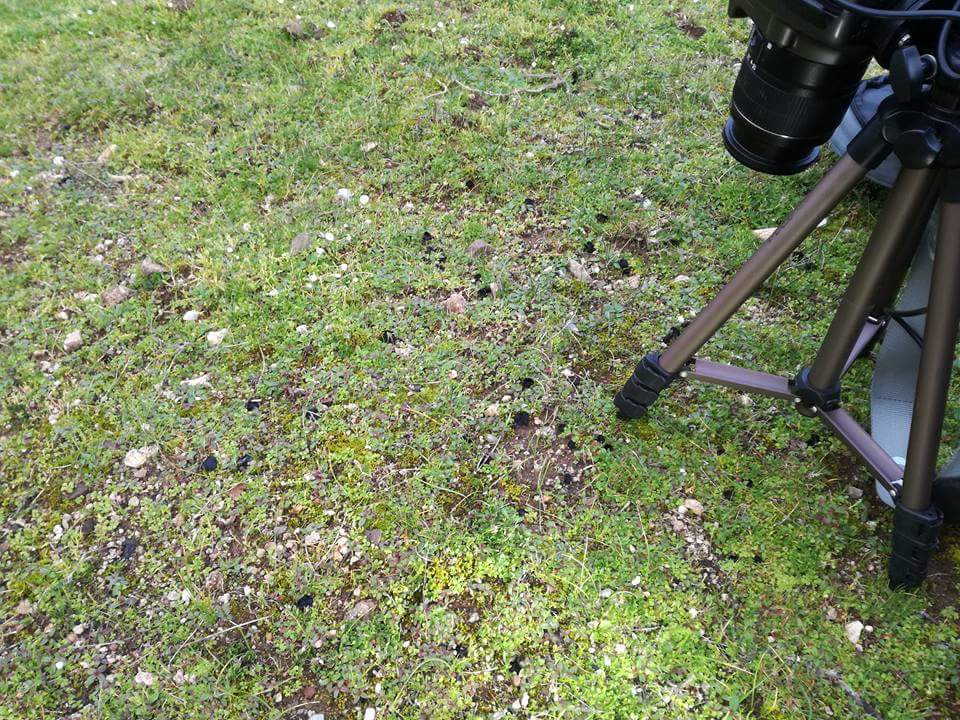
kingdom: Fungi
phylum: Ascomycota
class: Pezizomycetes
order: Pezizales
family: Helvellaceae
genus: Helvella
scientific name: Helvella helvellula
